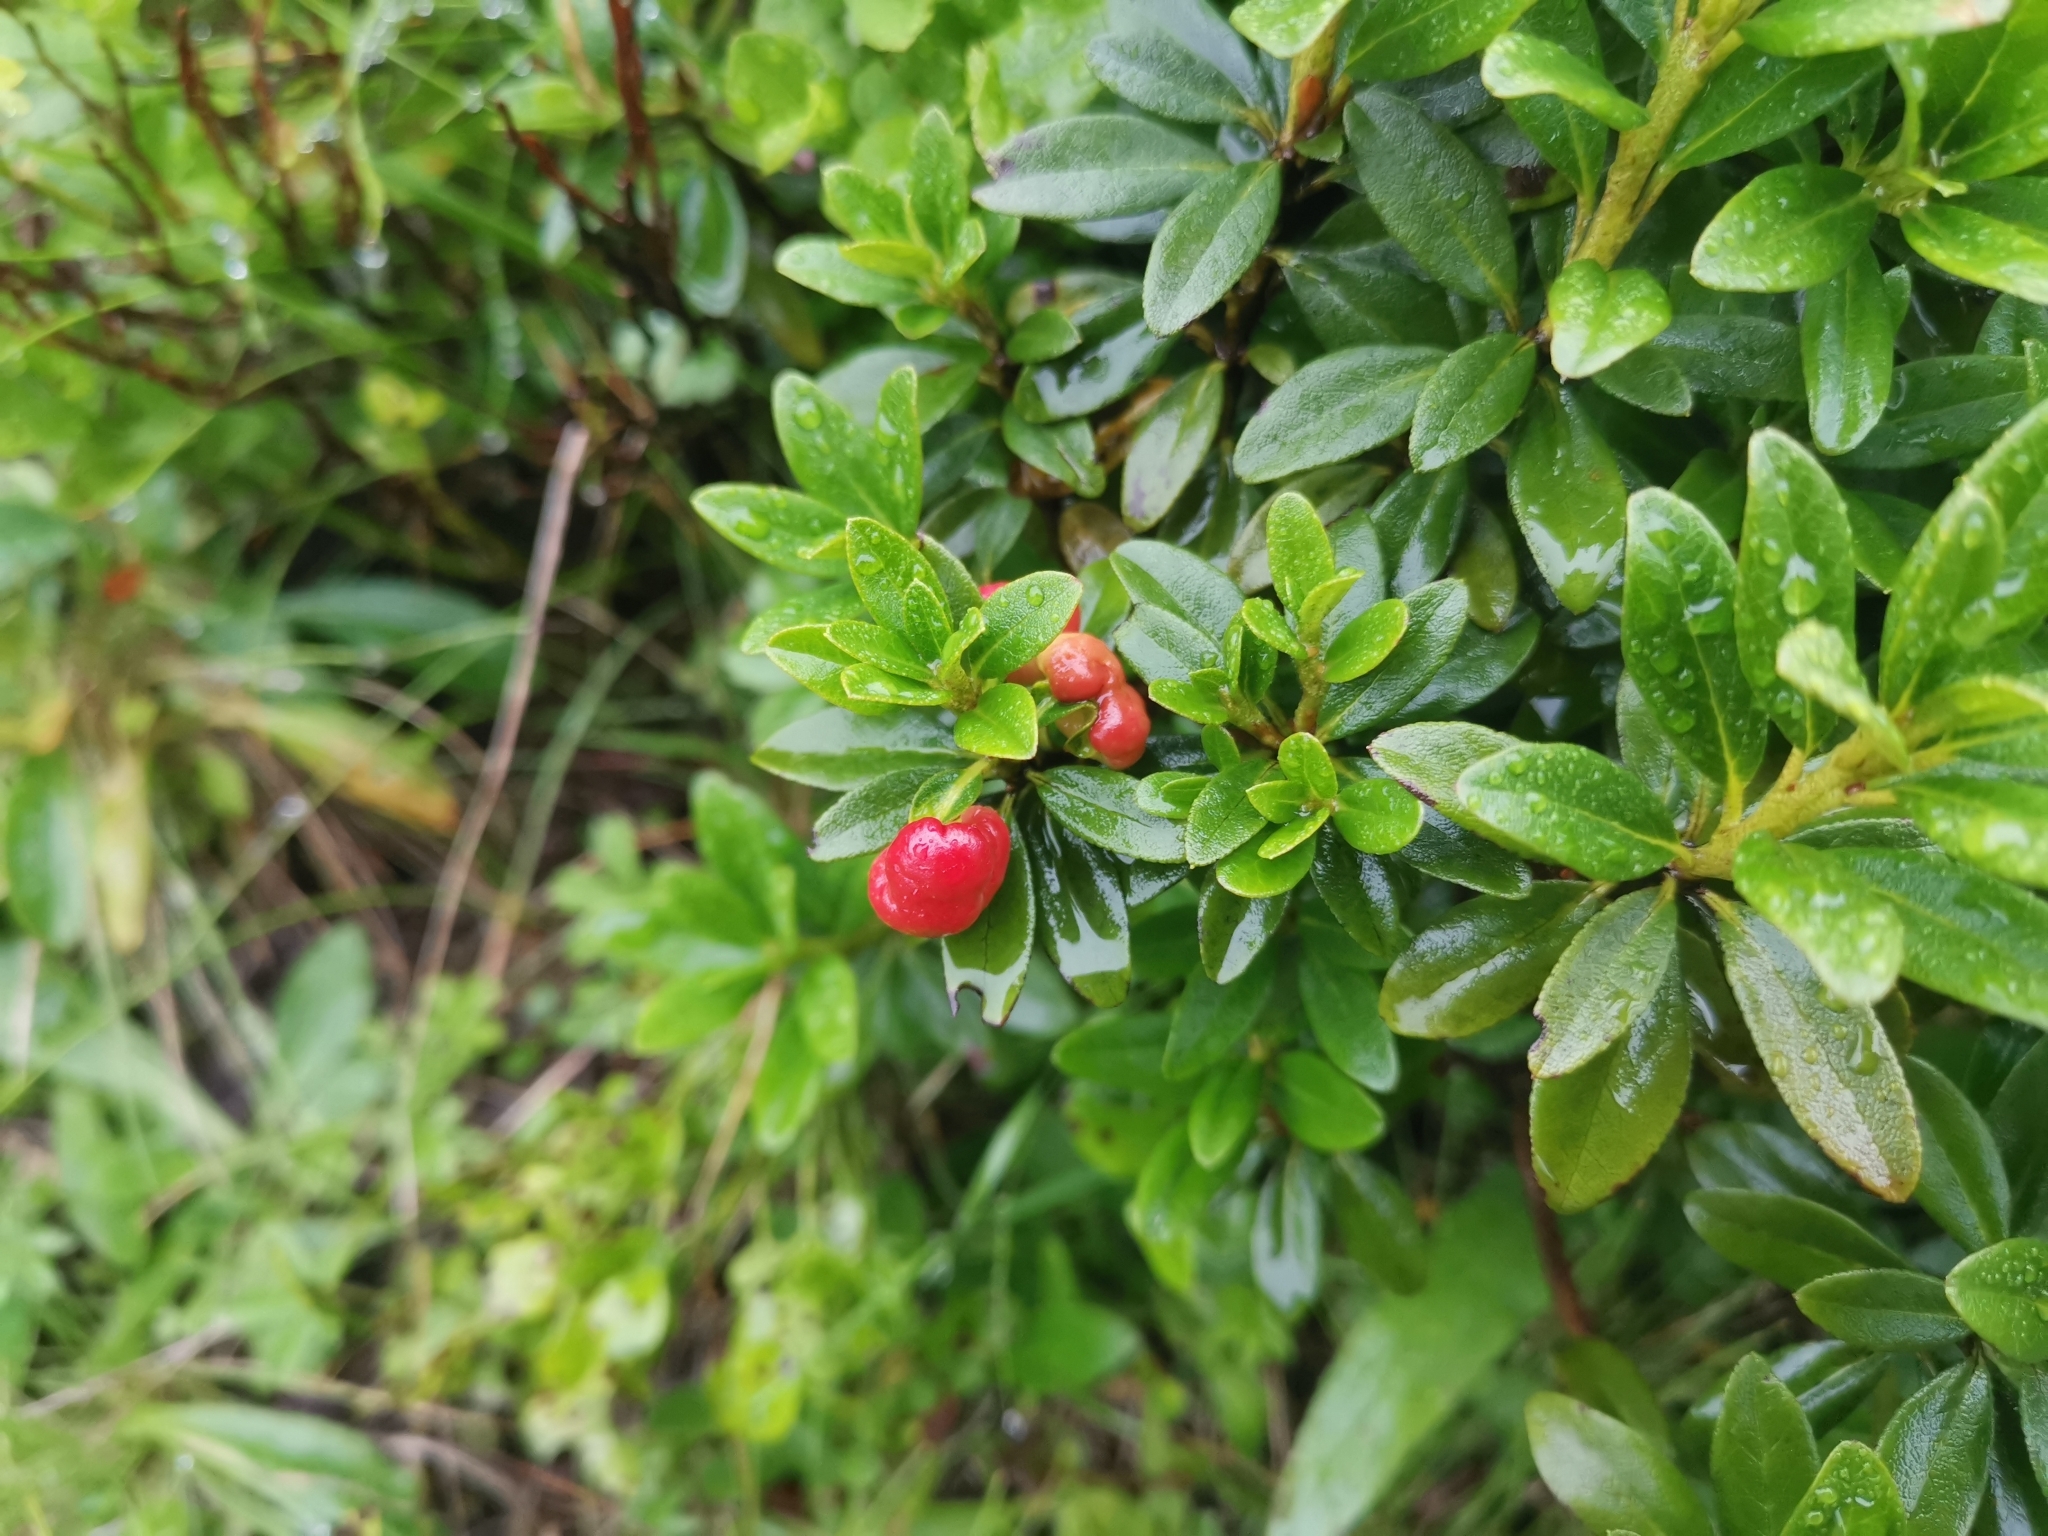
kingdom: Plantae
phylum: Tracheophyta
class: Magnoliopsida
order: Ericales
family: Ericaceae
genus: Rhododendron
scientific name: Rhododendron ferrugineum
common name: Alpenrose
